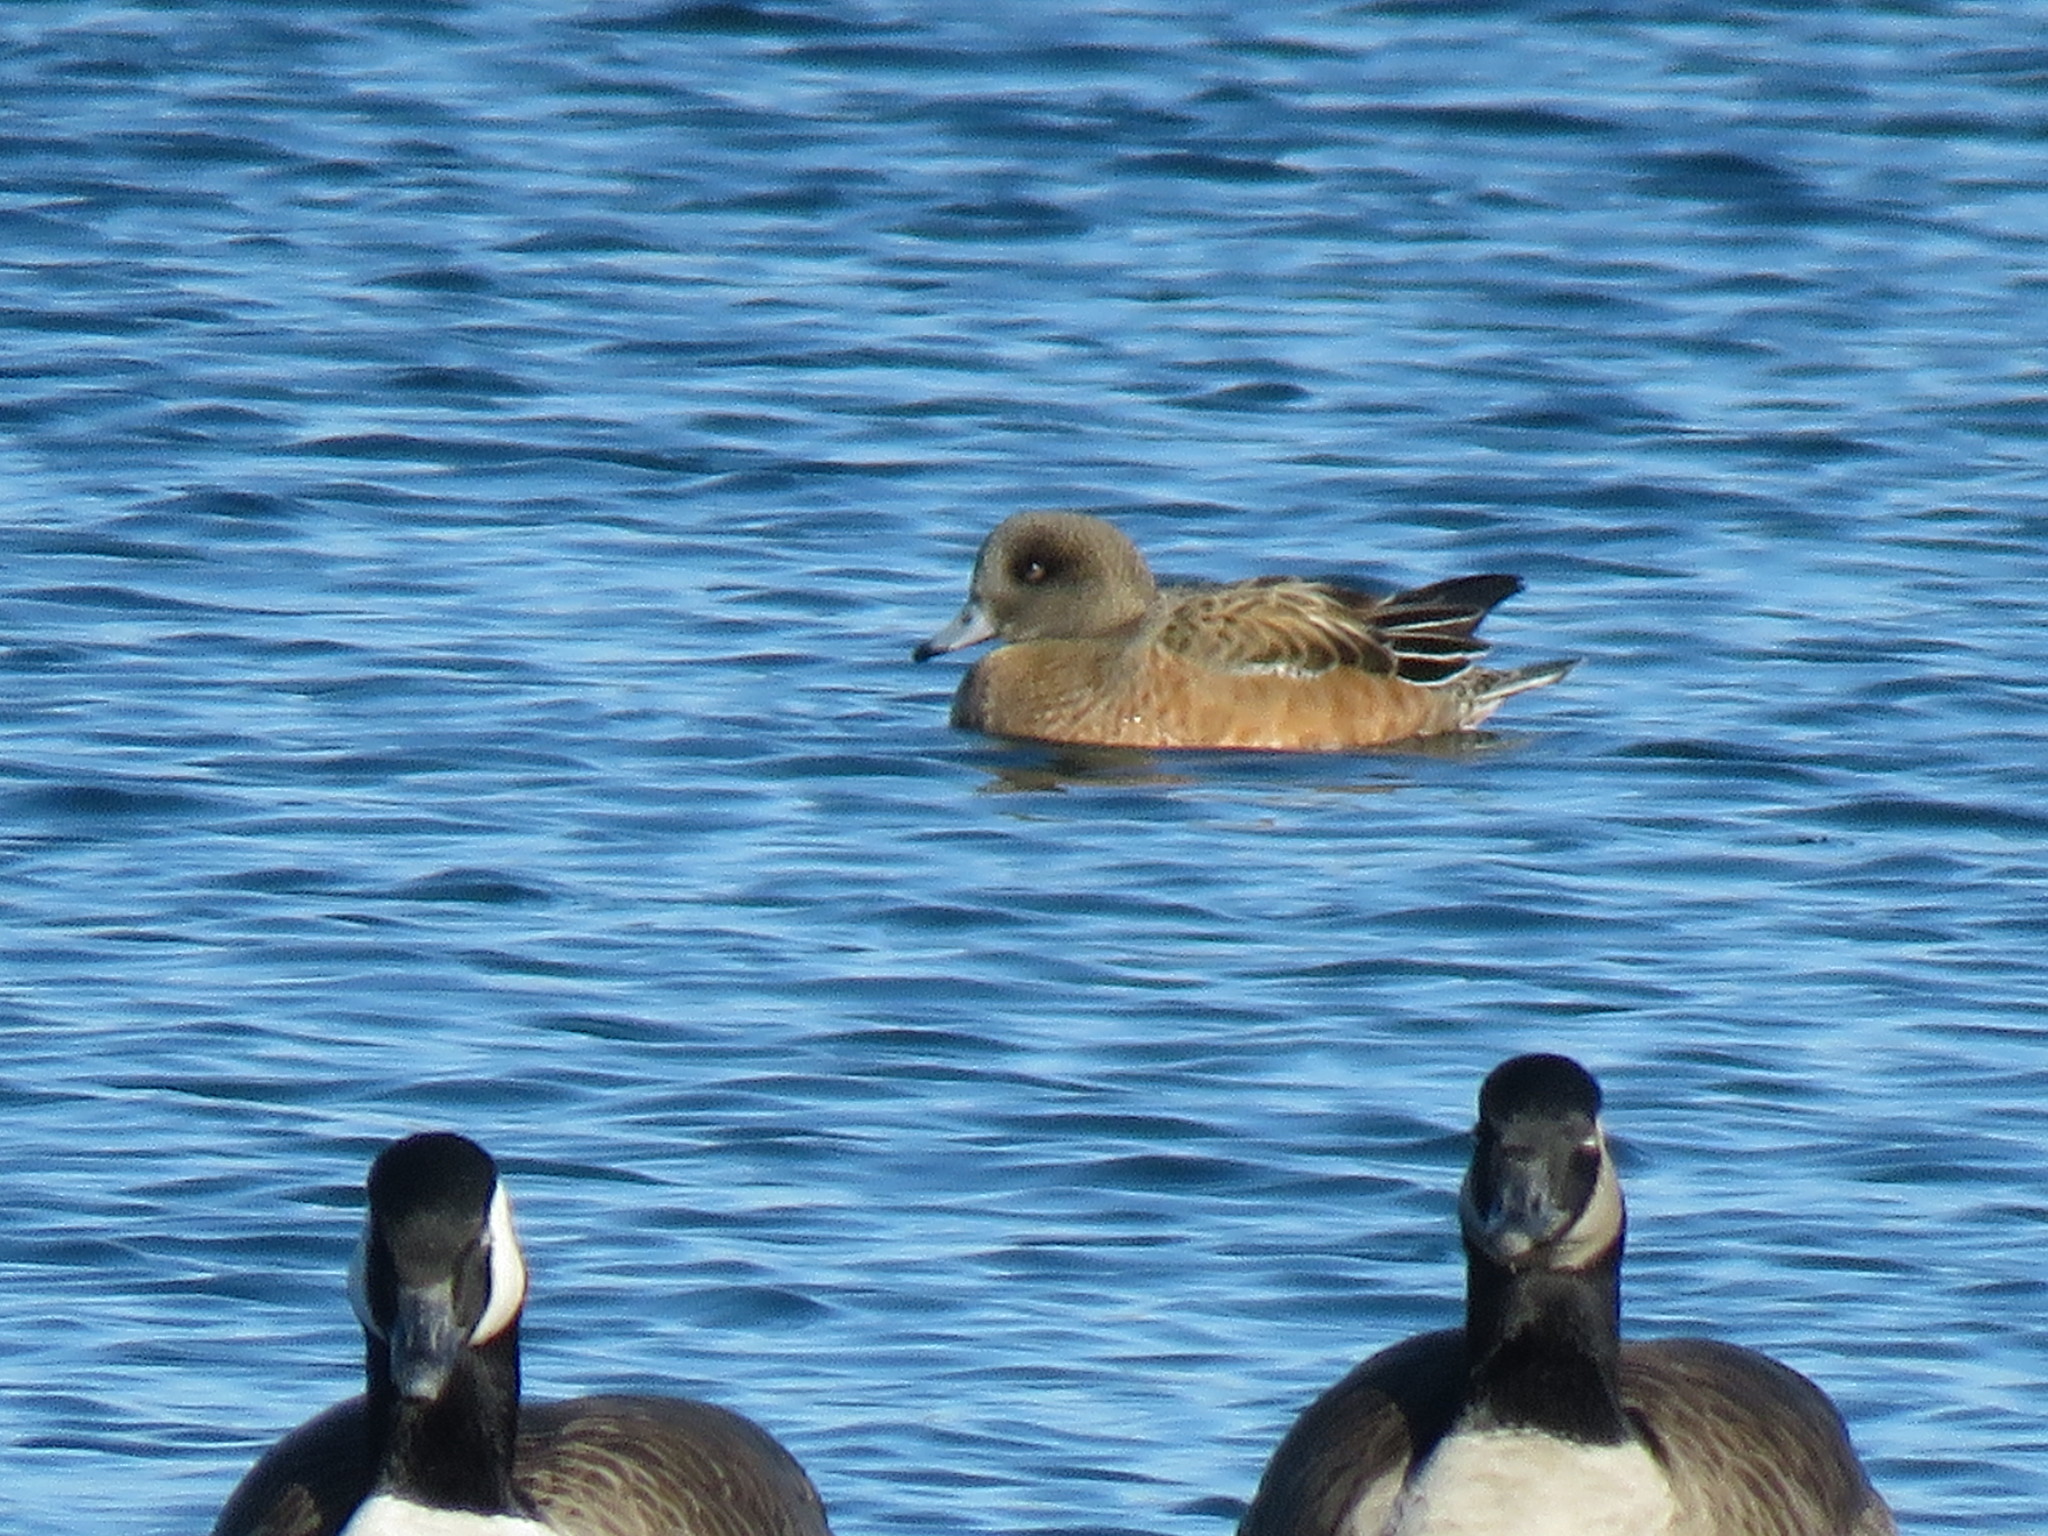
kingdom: Animalia
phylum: Chordata
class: Aves
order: Anseriformes
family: Anatidae
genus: Mareca
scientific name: Mareca americana
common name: American wigeon
